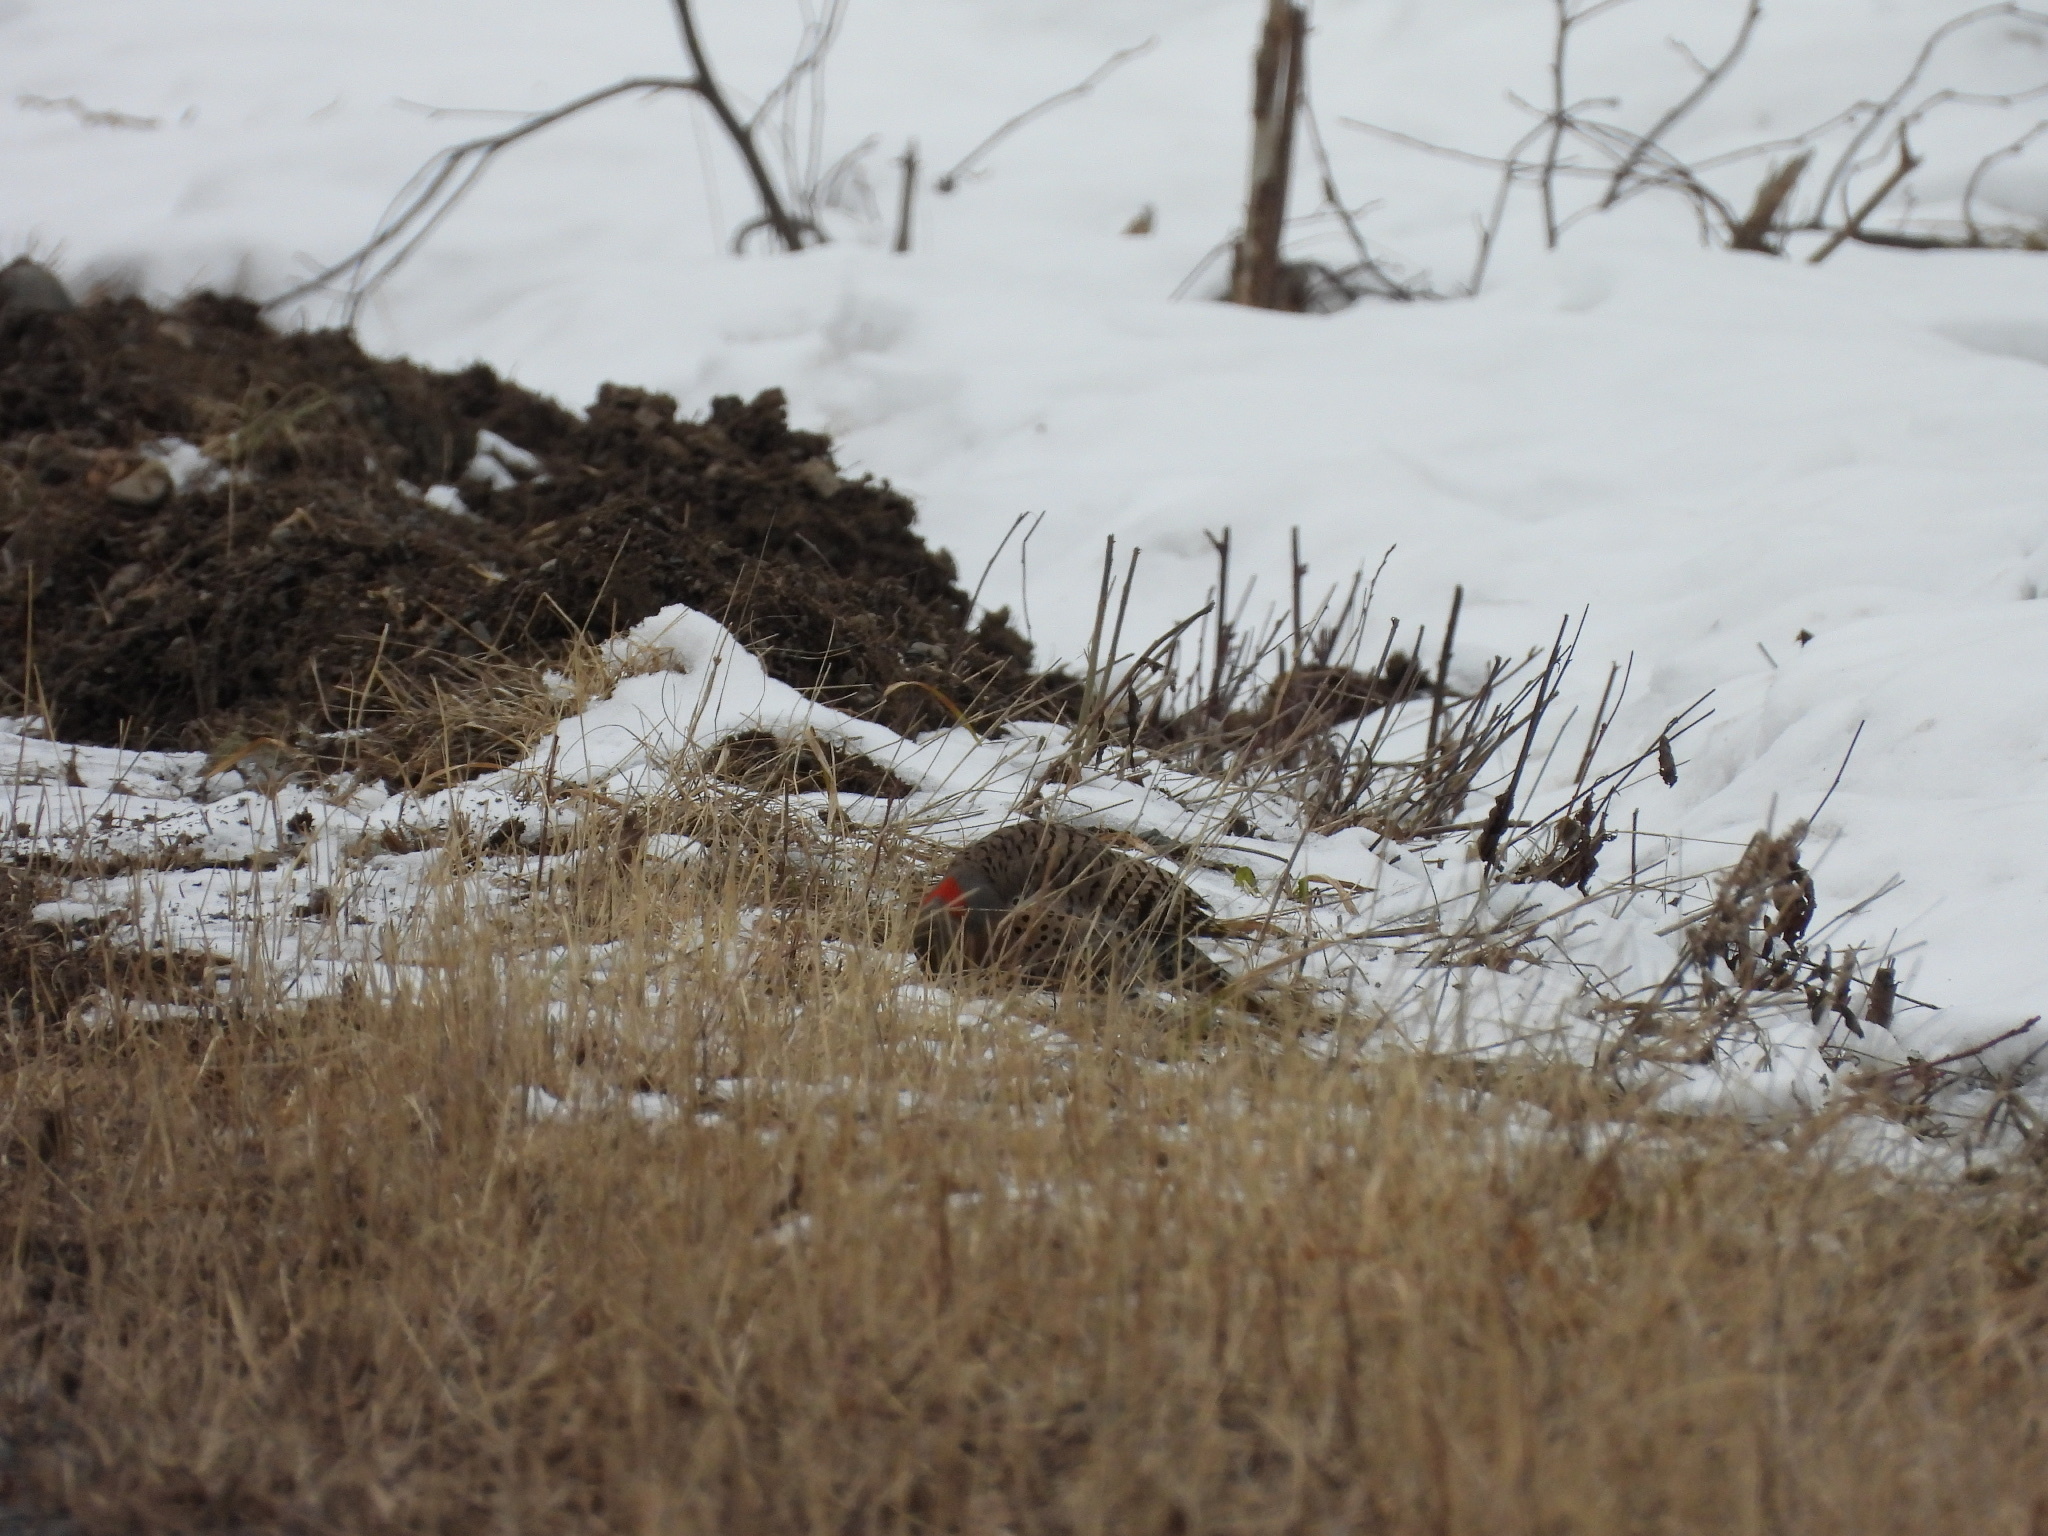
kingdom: Animalia
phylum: Chordata
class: Aves
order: Piciformes
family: Picidae
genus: Colaptes
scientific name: Colaptes auratus
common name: Northern flicker
